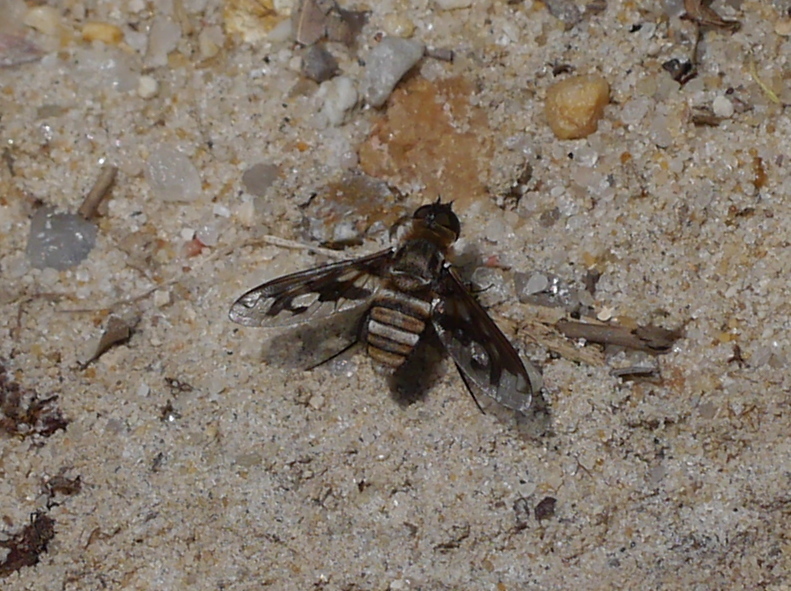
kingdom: Animalia
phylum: Arthropoda
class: Insecta
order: Diptera
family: Bombyliidae
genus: Exoprosopa
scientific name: Exoprosopa fascipennis
